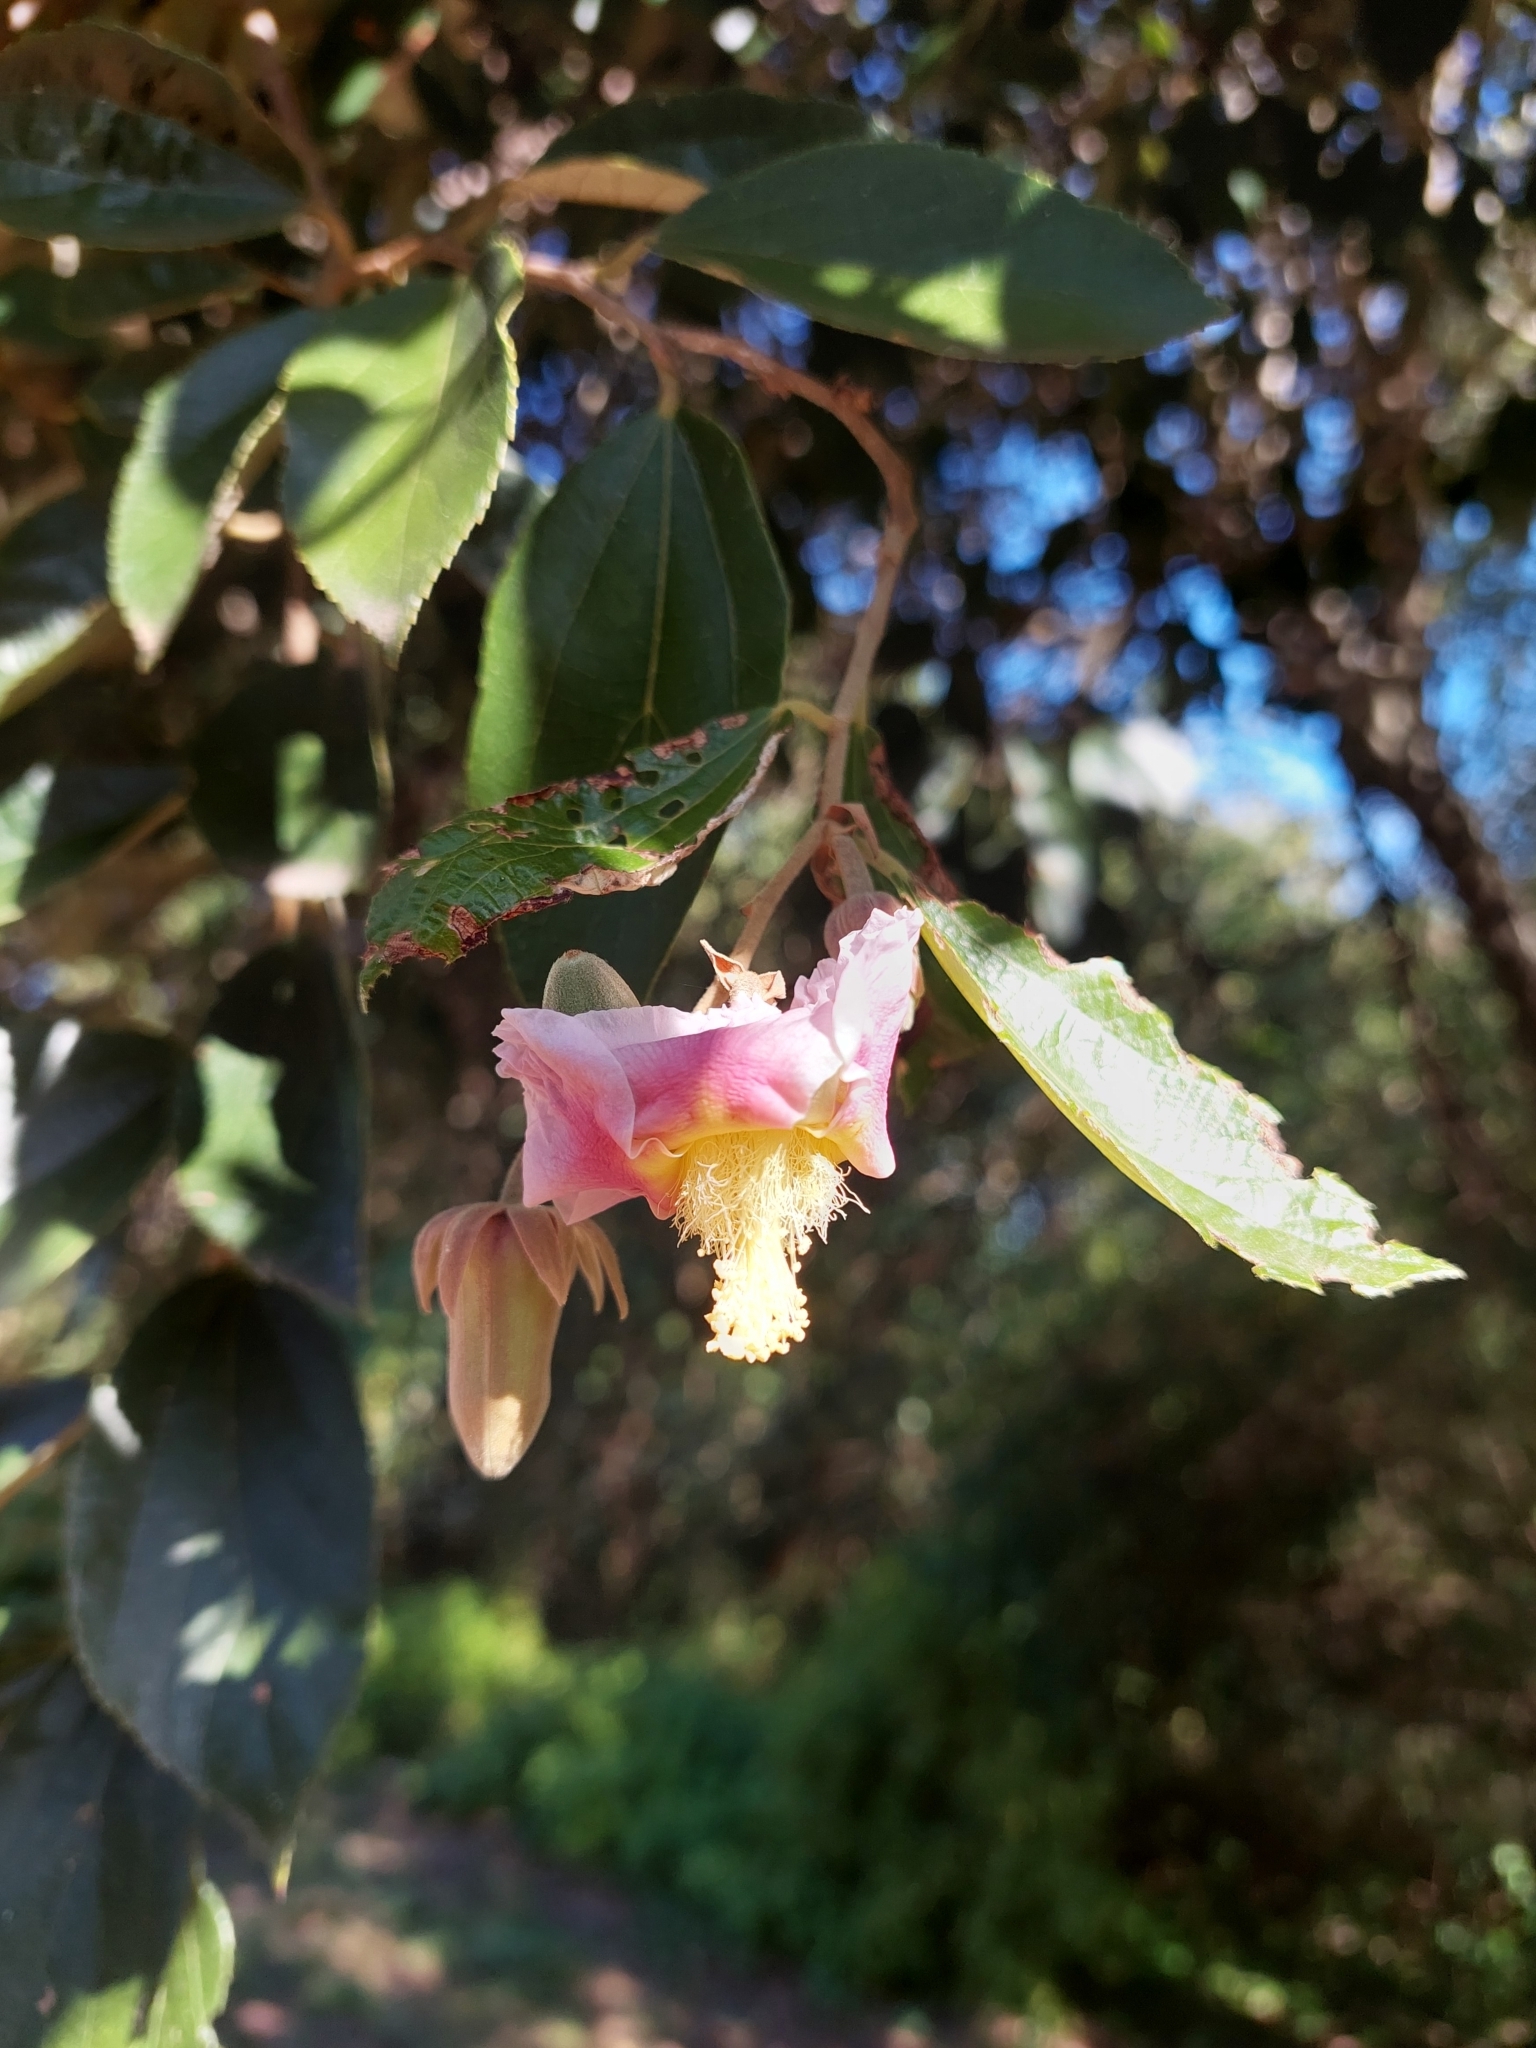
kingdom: Plantae
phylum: Tracheophyta
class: Magnoliopsida
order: Malvales
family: Malvaceae
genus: Luehea
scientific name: Luehea divaricata
